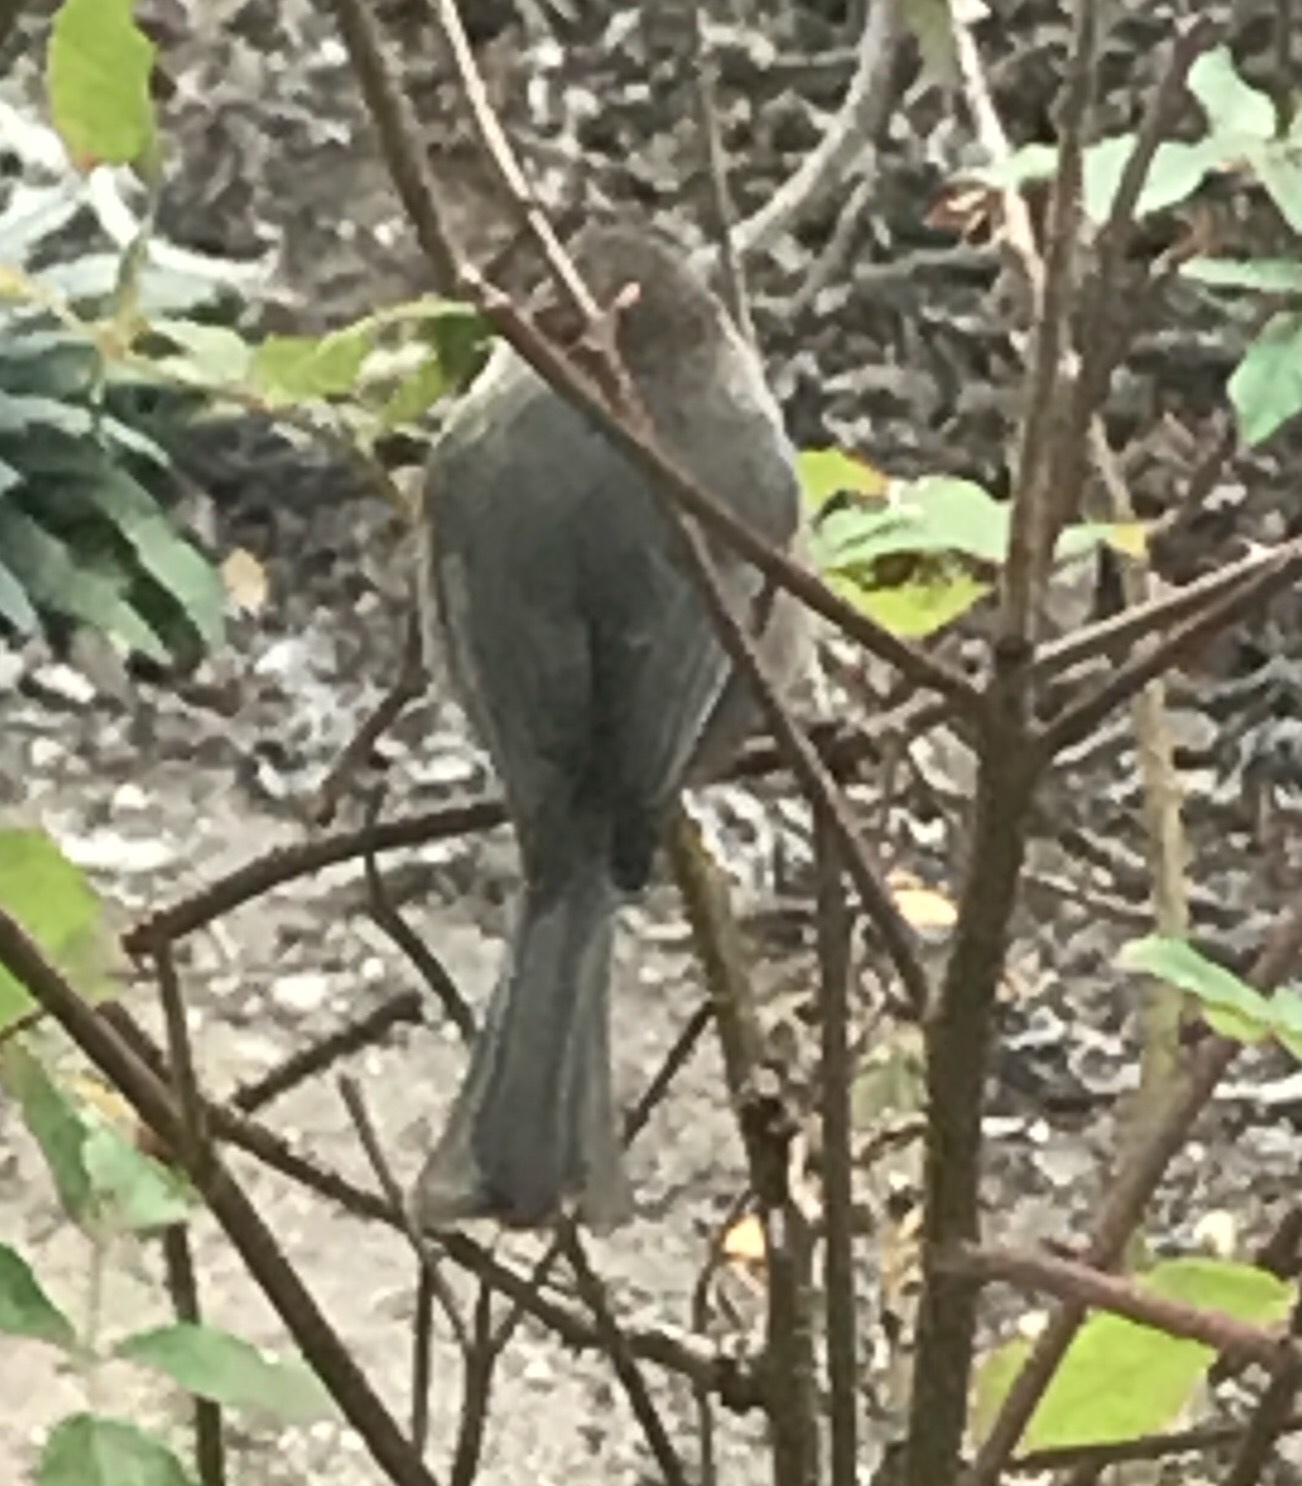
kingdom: Animalia
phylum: Chordata
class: Aves
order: Passeriformes
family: Aegithalidae
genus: Psaltriparus
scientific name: Psaltriparus minimus
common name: American bushtit
